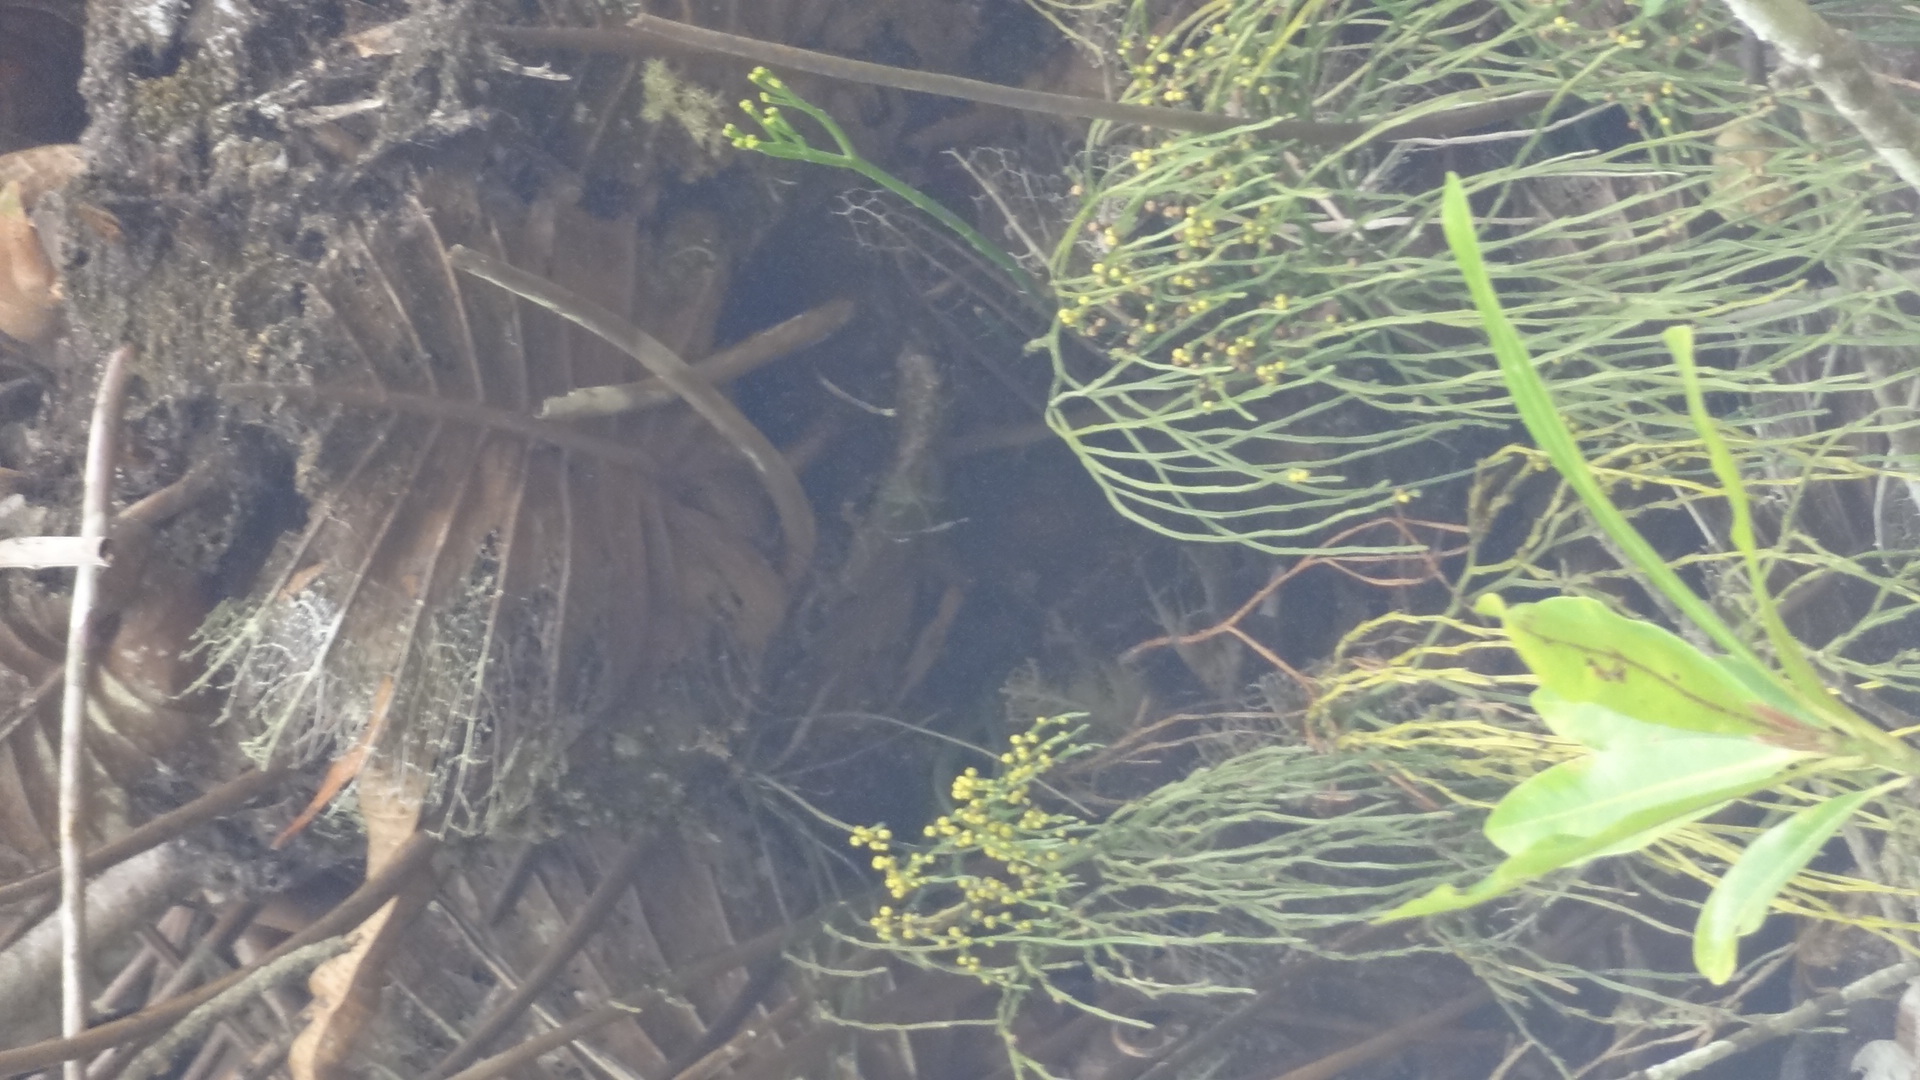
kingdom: Plantae
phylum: Tracheophyta
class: Polypodiopsida
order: Psilotales
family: Psilotaceae
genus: Psilotum
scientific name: Psilotum nudum
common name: Skeleton fork fern
